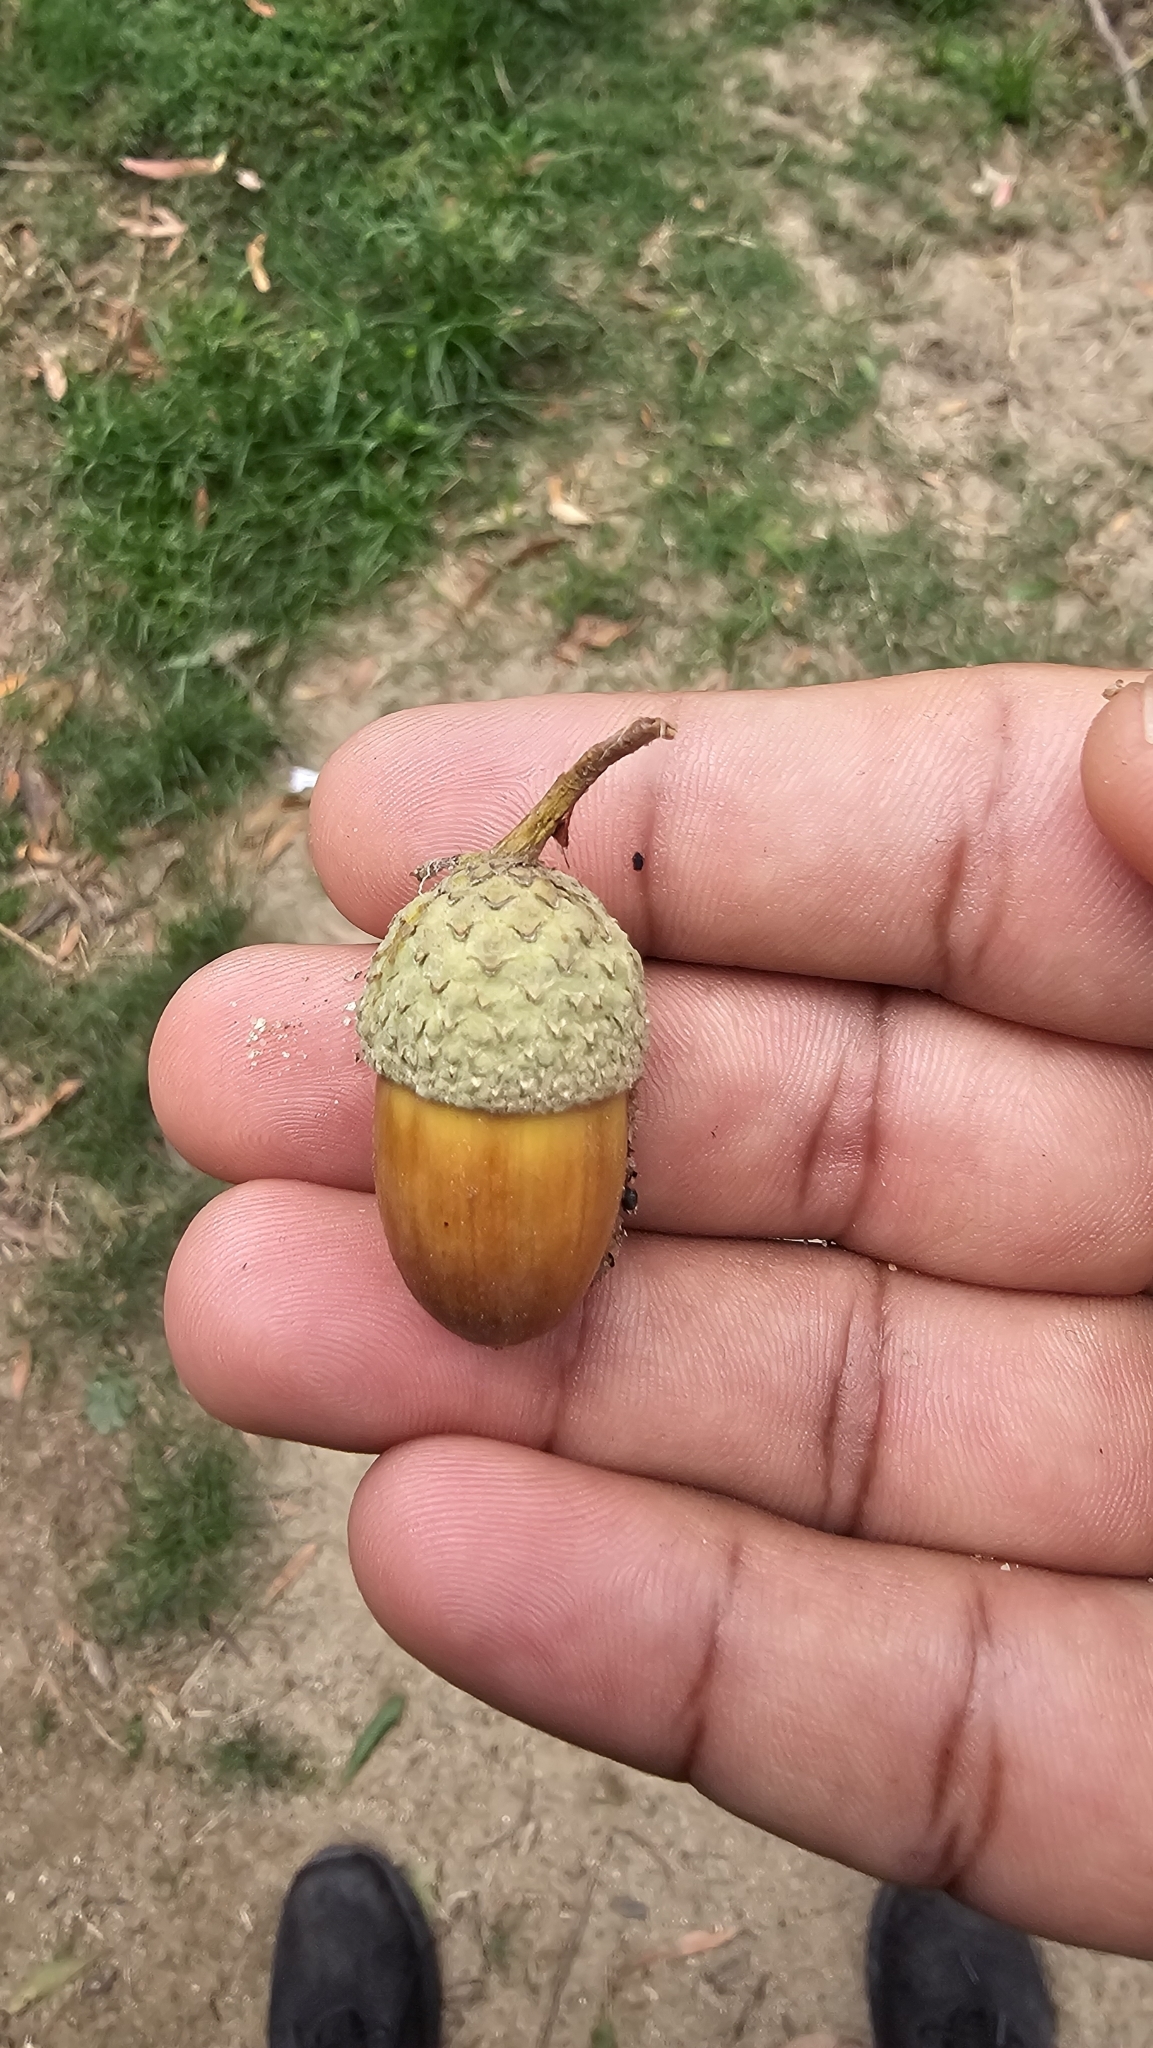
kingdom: Plantae
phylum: Tracheophyta
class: Magnoliopsida
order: Fagales
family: Fagaceae
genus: Quercus
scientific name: Quercus robur
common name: Pedunculate oak
